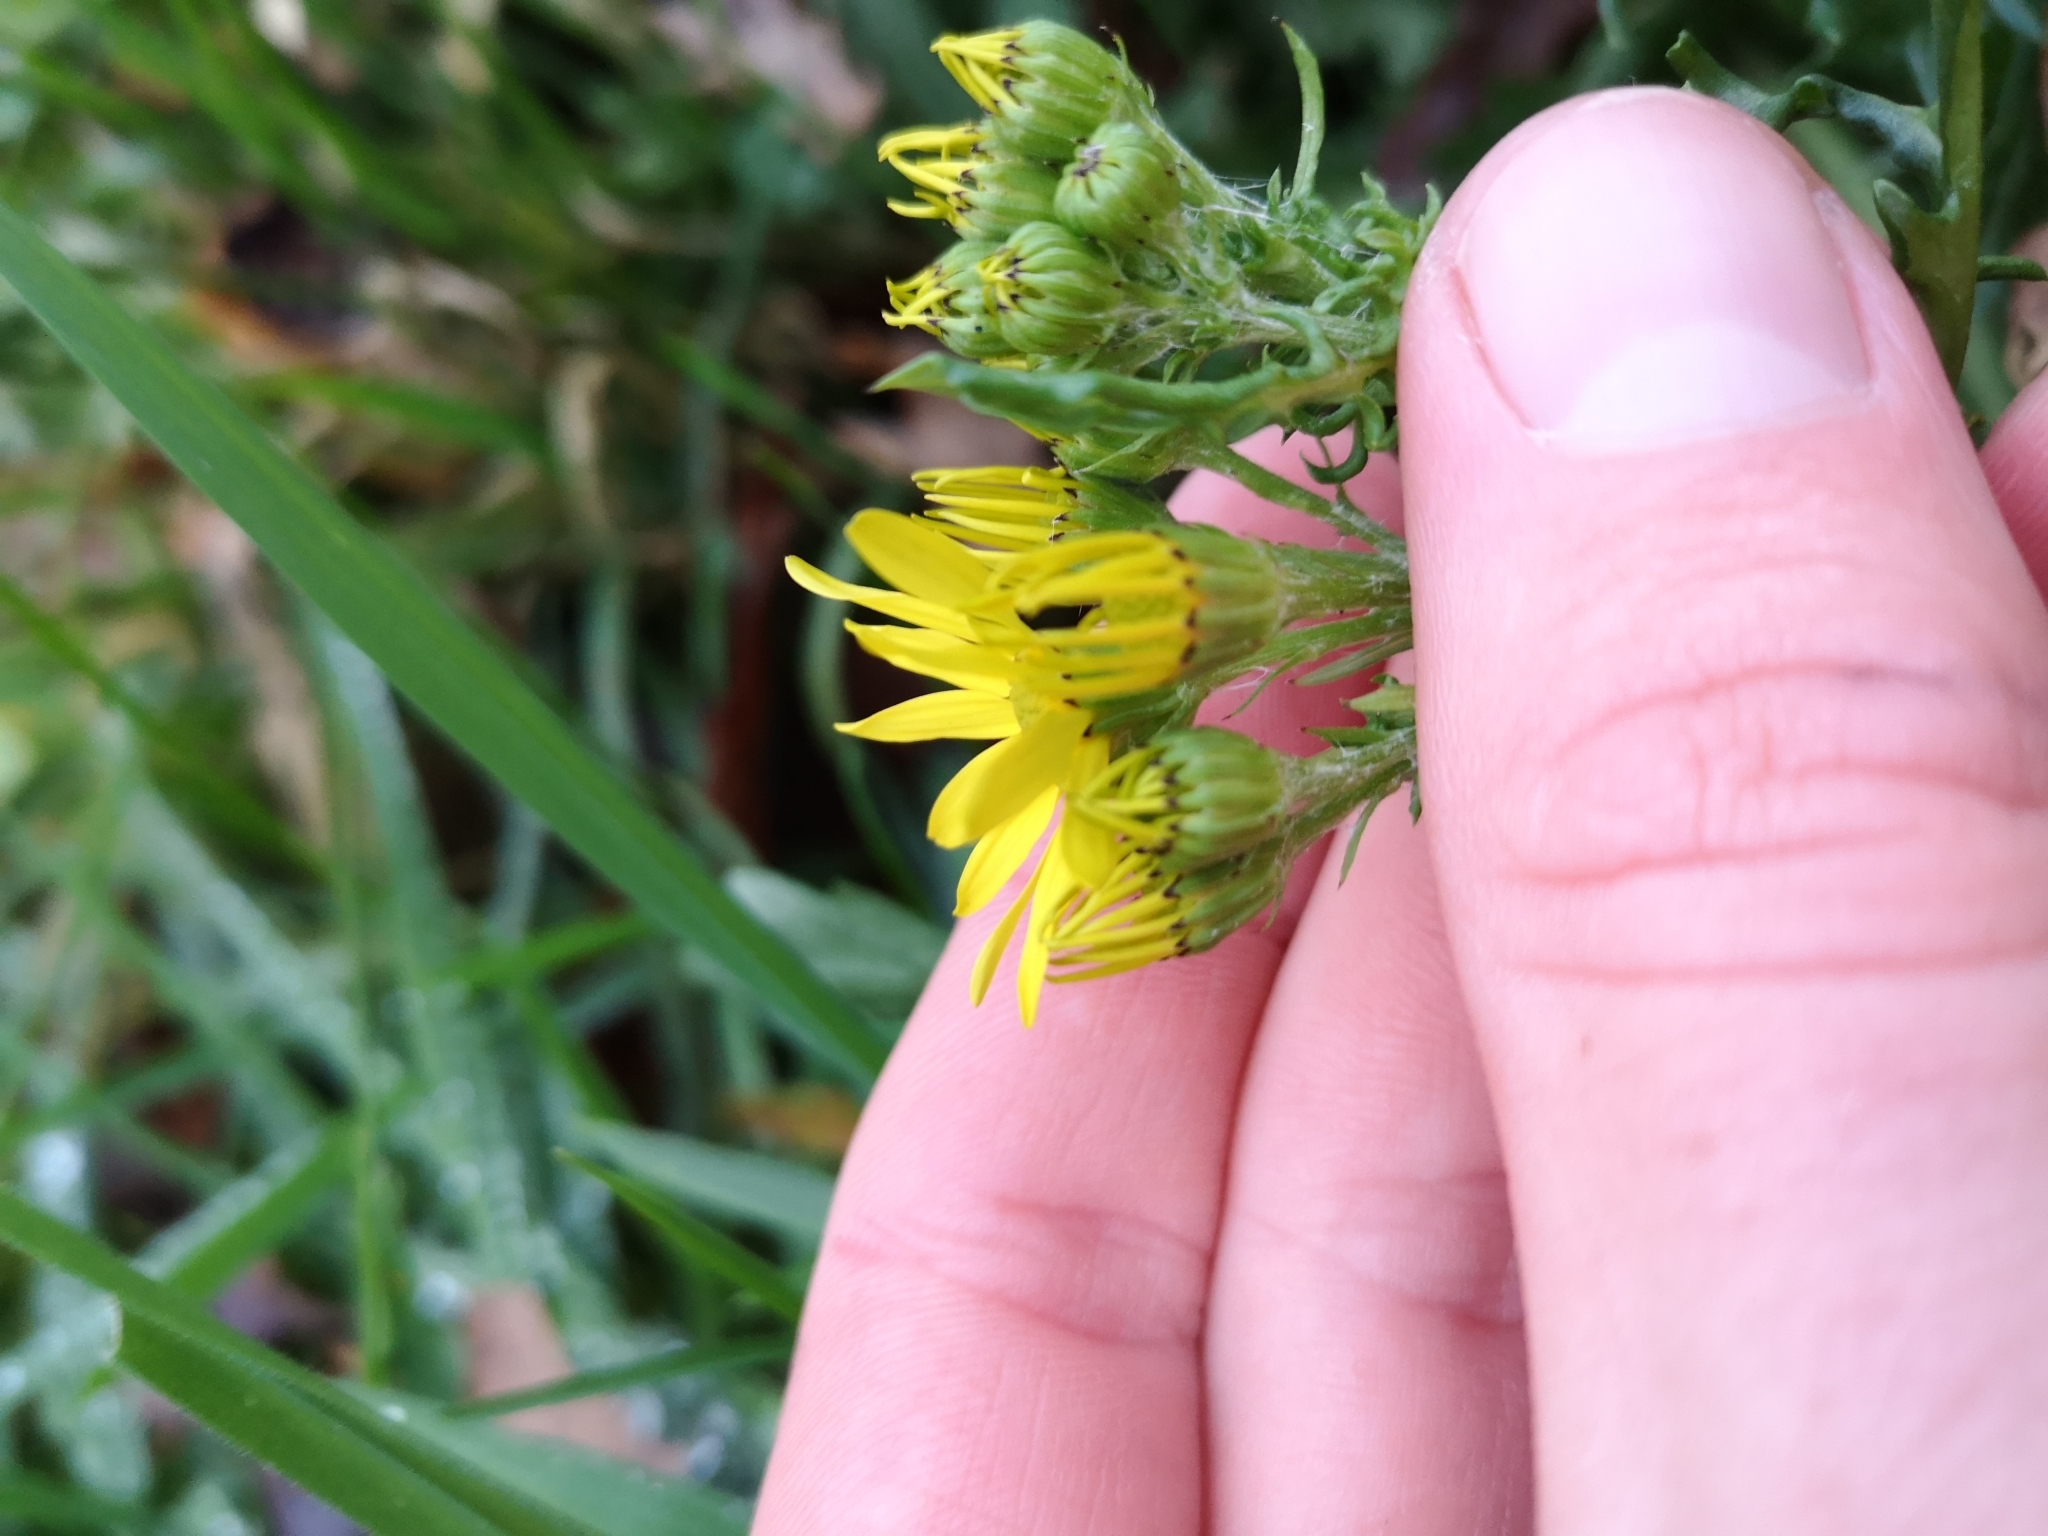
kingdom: Plantae
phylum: Tracheophyta
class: Magnoliopsida
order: Asterales
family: Asteraceae
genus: Jacobaea
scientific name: Jacobaea vulgaris
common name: Stinking willie
